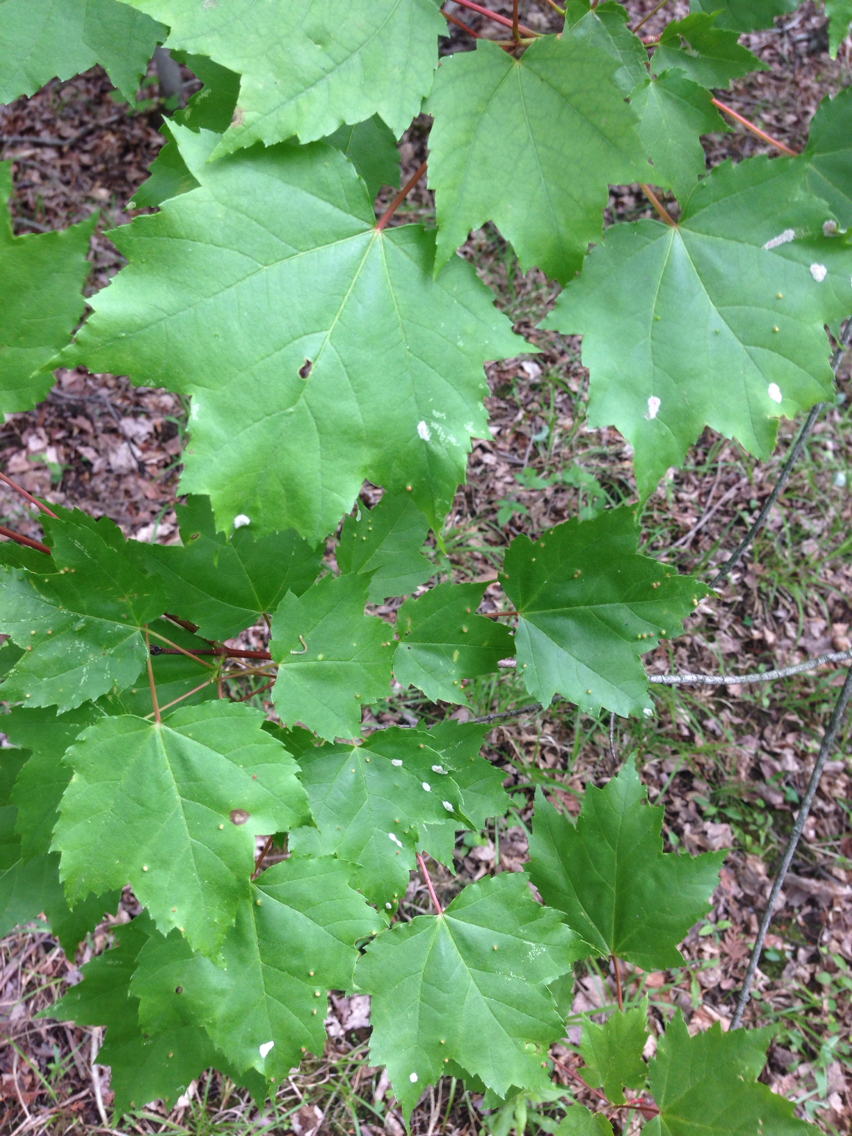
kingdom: Plantae
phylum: Tracheophyta
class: Magnoliopsida
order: Sapindales
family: Sapindaceae
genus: Acer
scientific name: Acer rubrum
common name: Red maple
